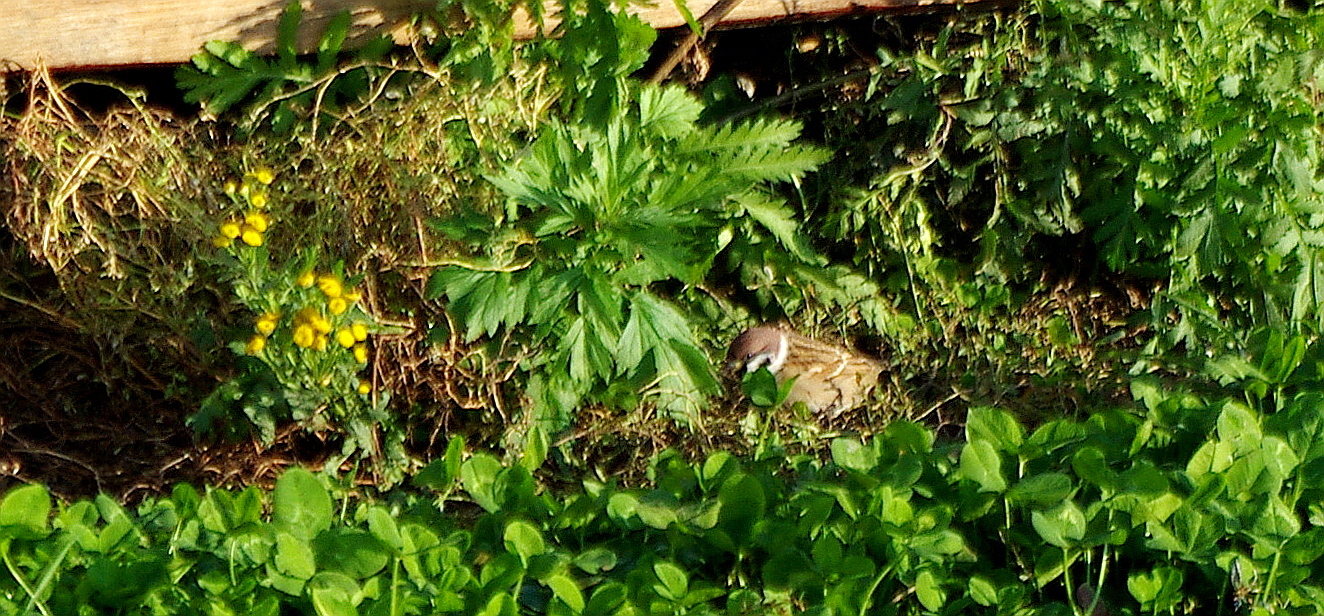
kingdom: Animalia
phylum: Chordata
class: Aves
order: Passeriformes
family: Passeridae
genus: Passer
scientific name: Passer montanus
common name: Eurasian tree sparrow
